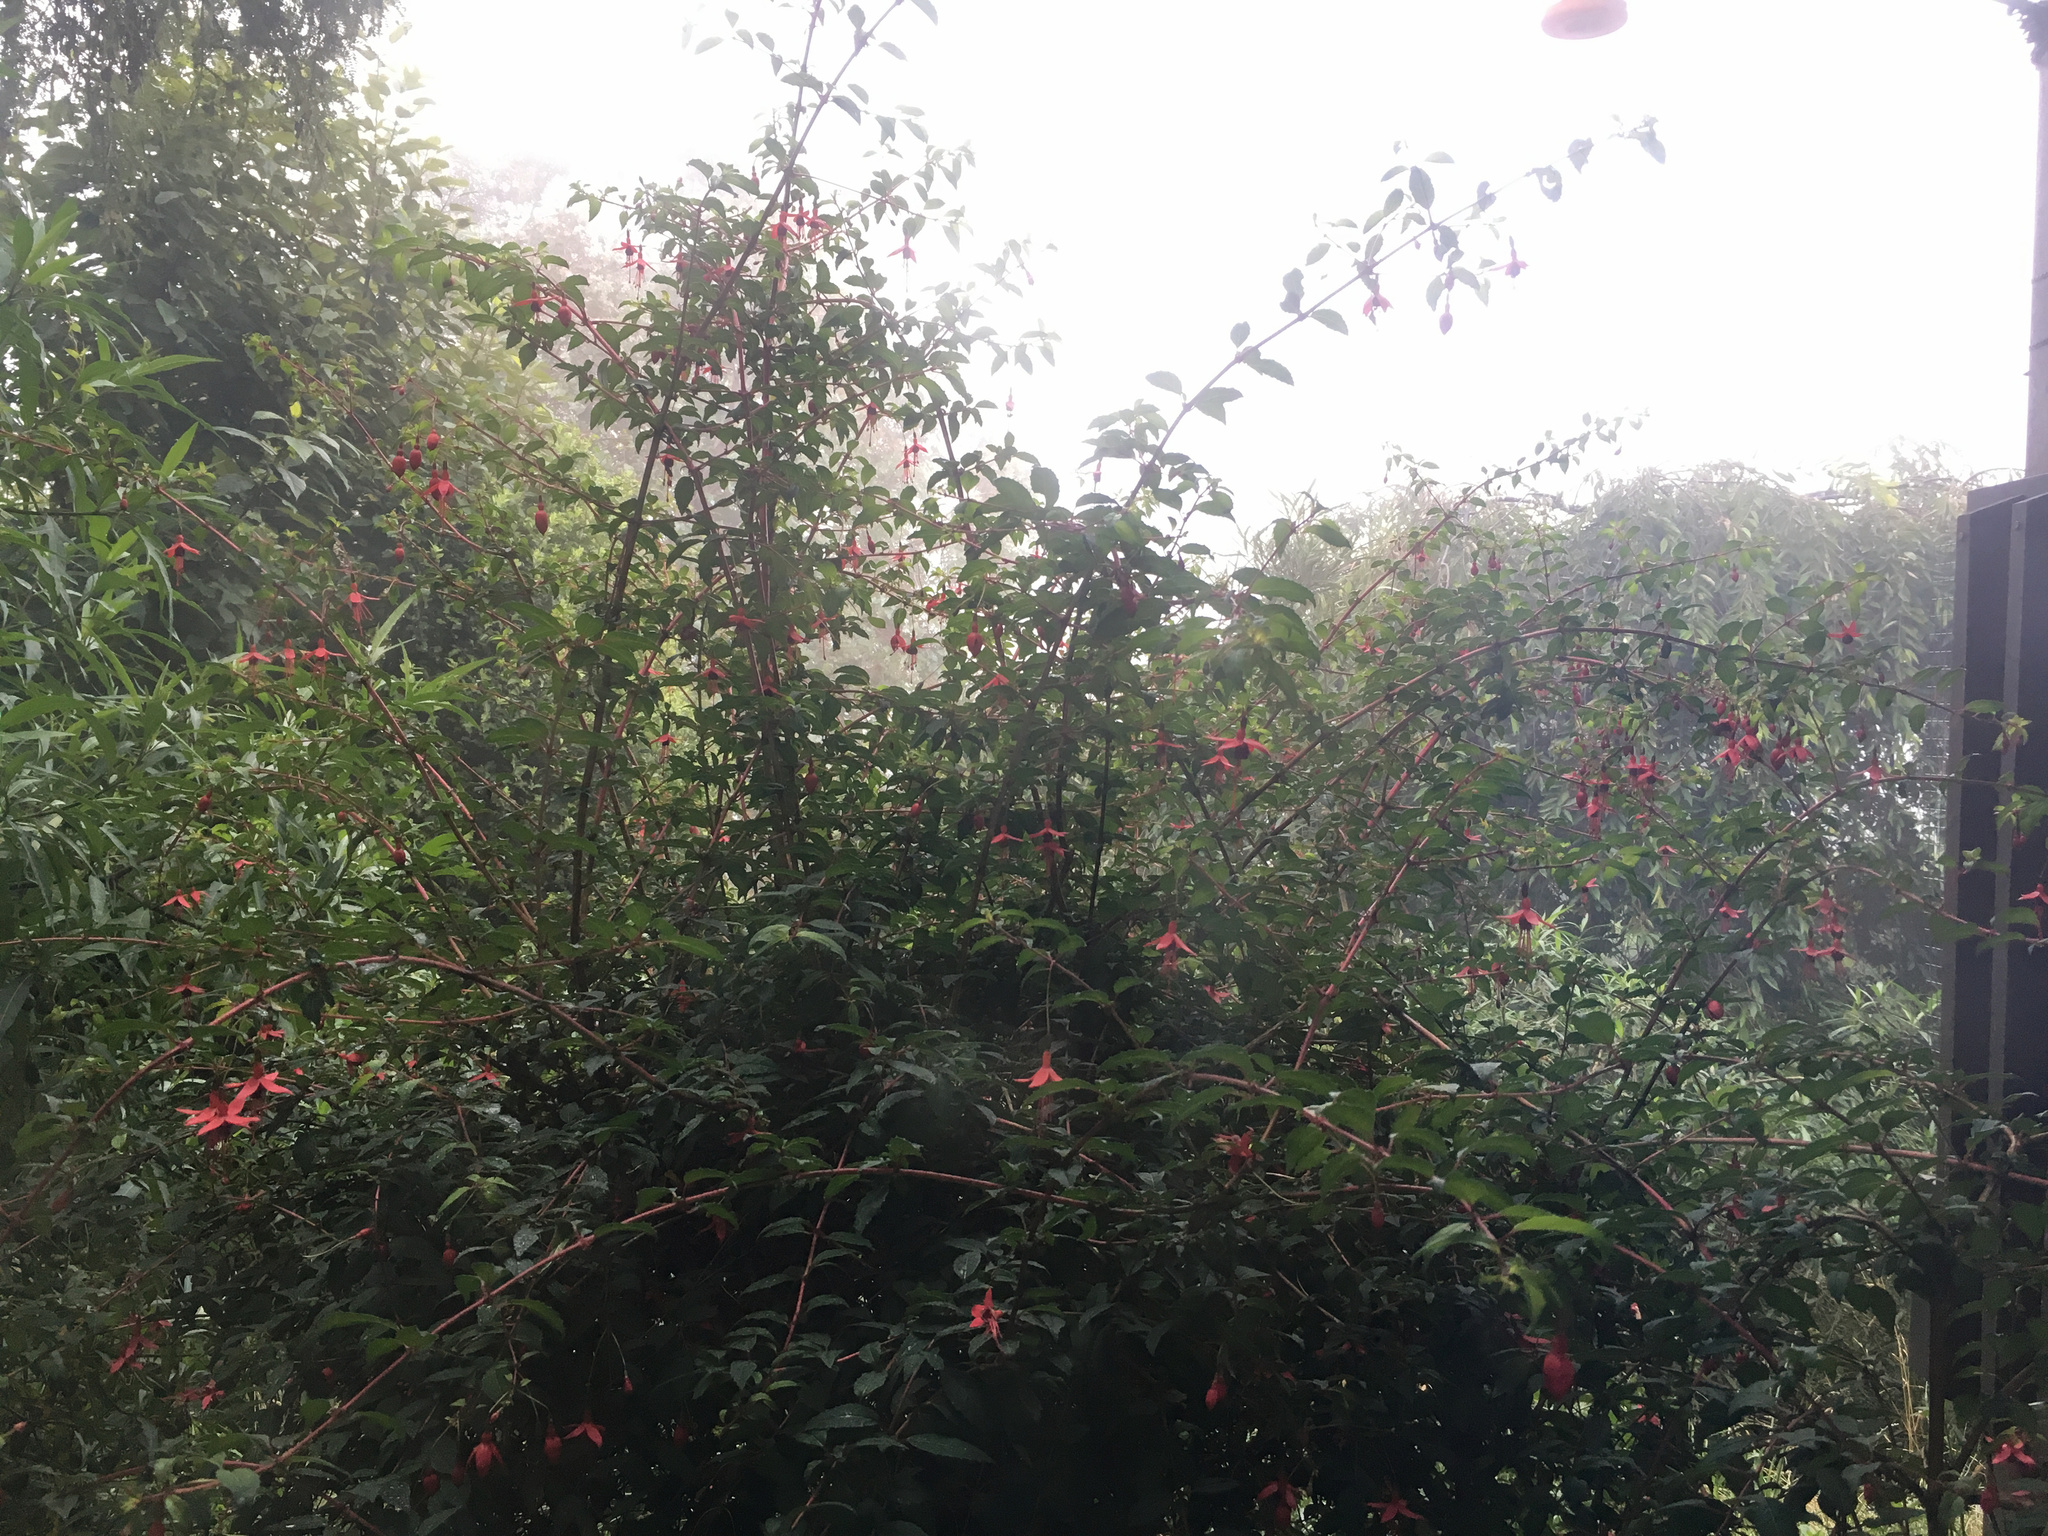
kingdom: Plantae
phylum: Tracheophyta
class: Magnoliopsida
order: Myrtales
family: Onagraceae
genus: Fuchsia
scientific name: Fuchsia magellanica
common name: Hardy fuchsia
